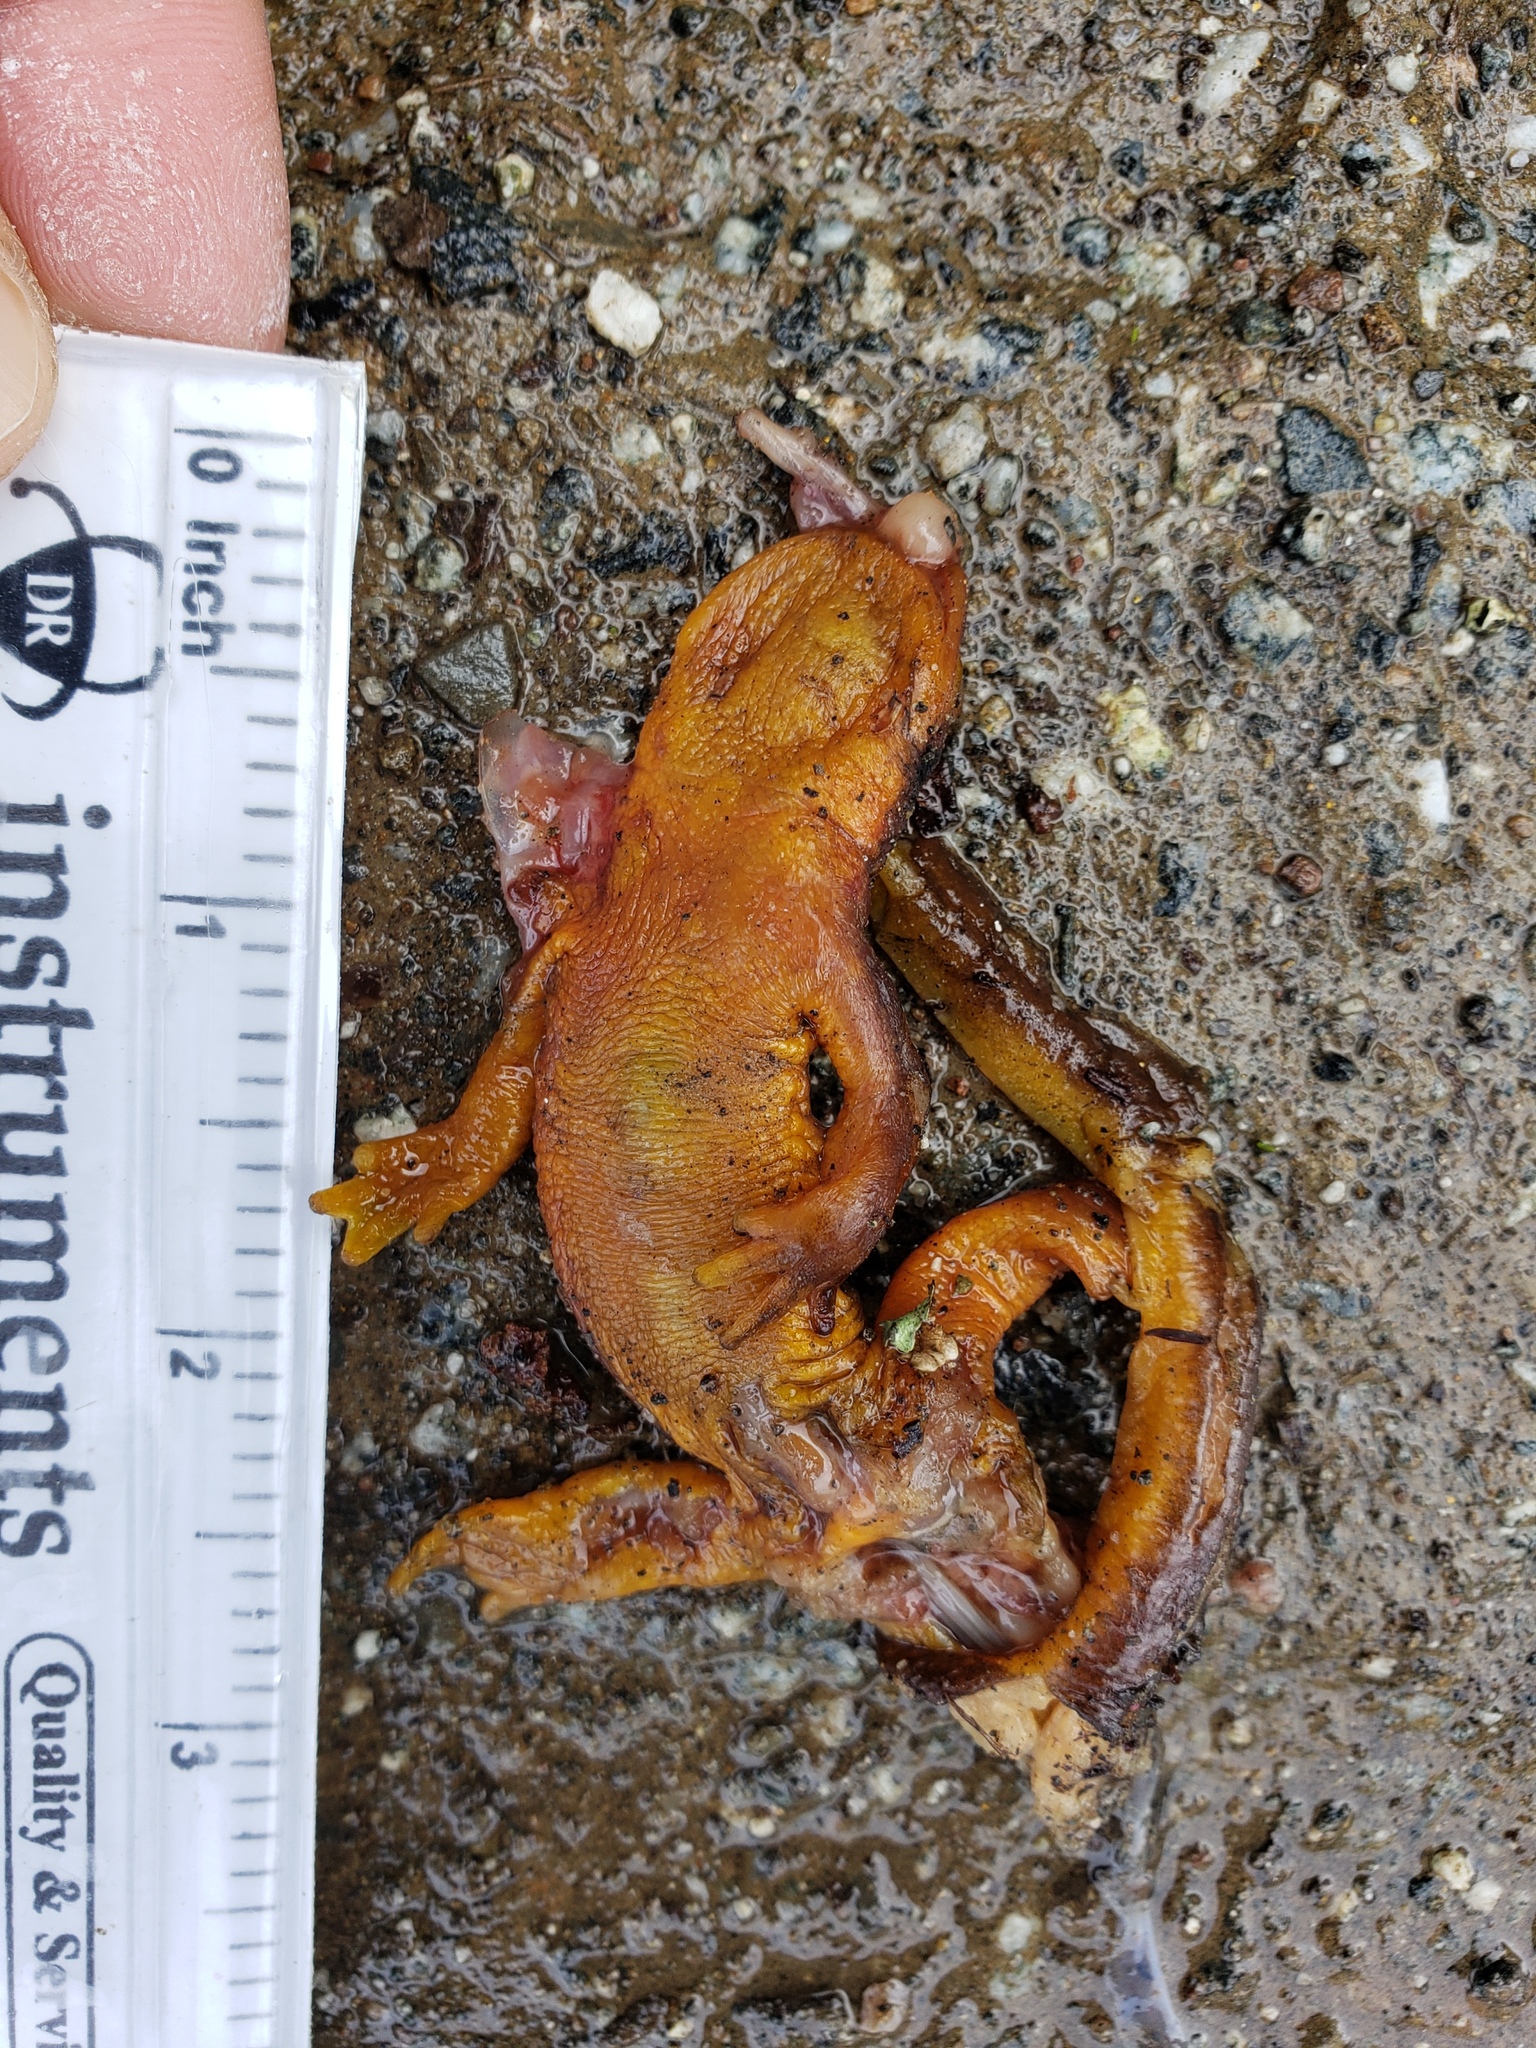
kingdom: Animalia
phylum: Chordata
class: Amphibia
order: Caudata
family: Salamandridae
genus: Taricha
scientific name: Taricha
